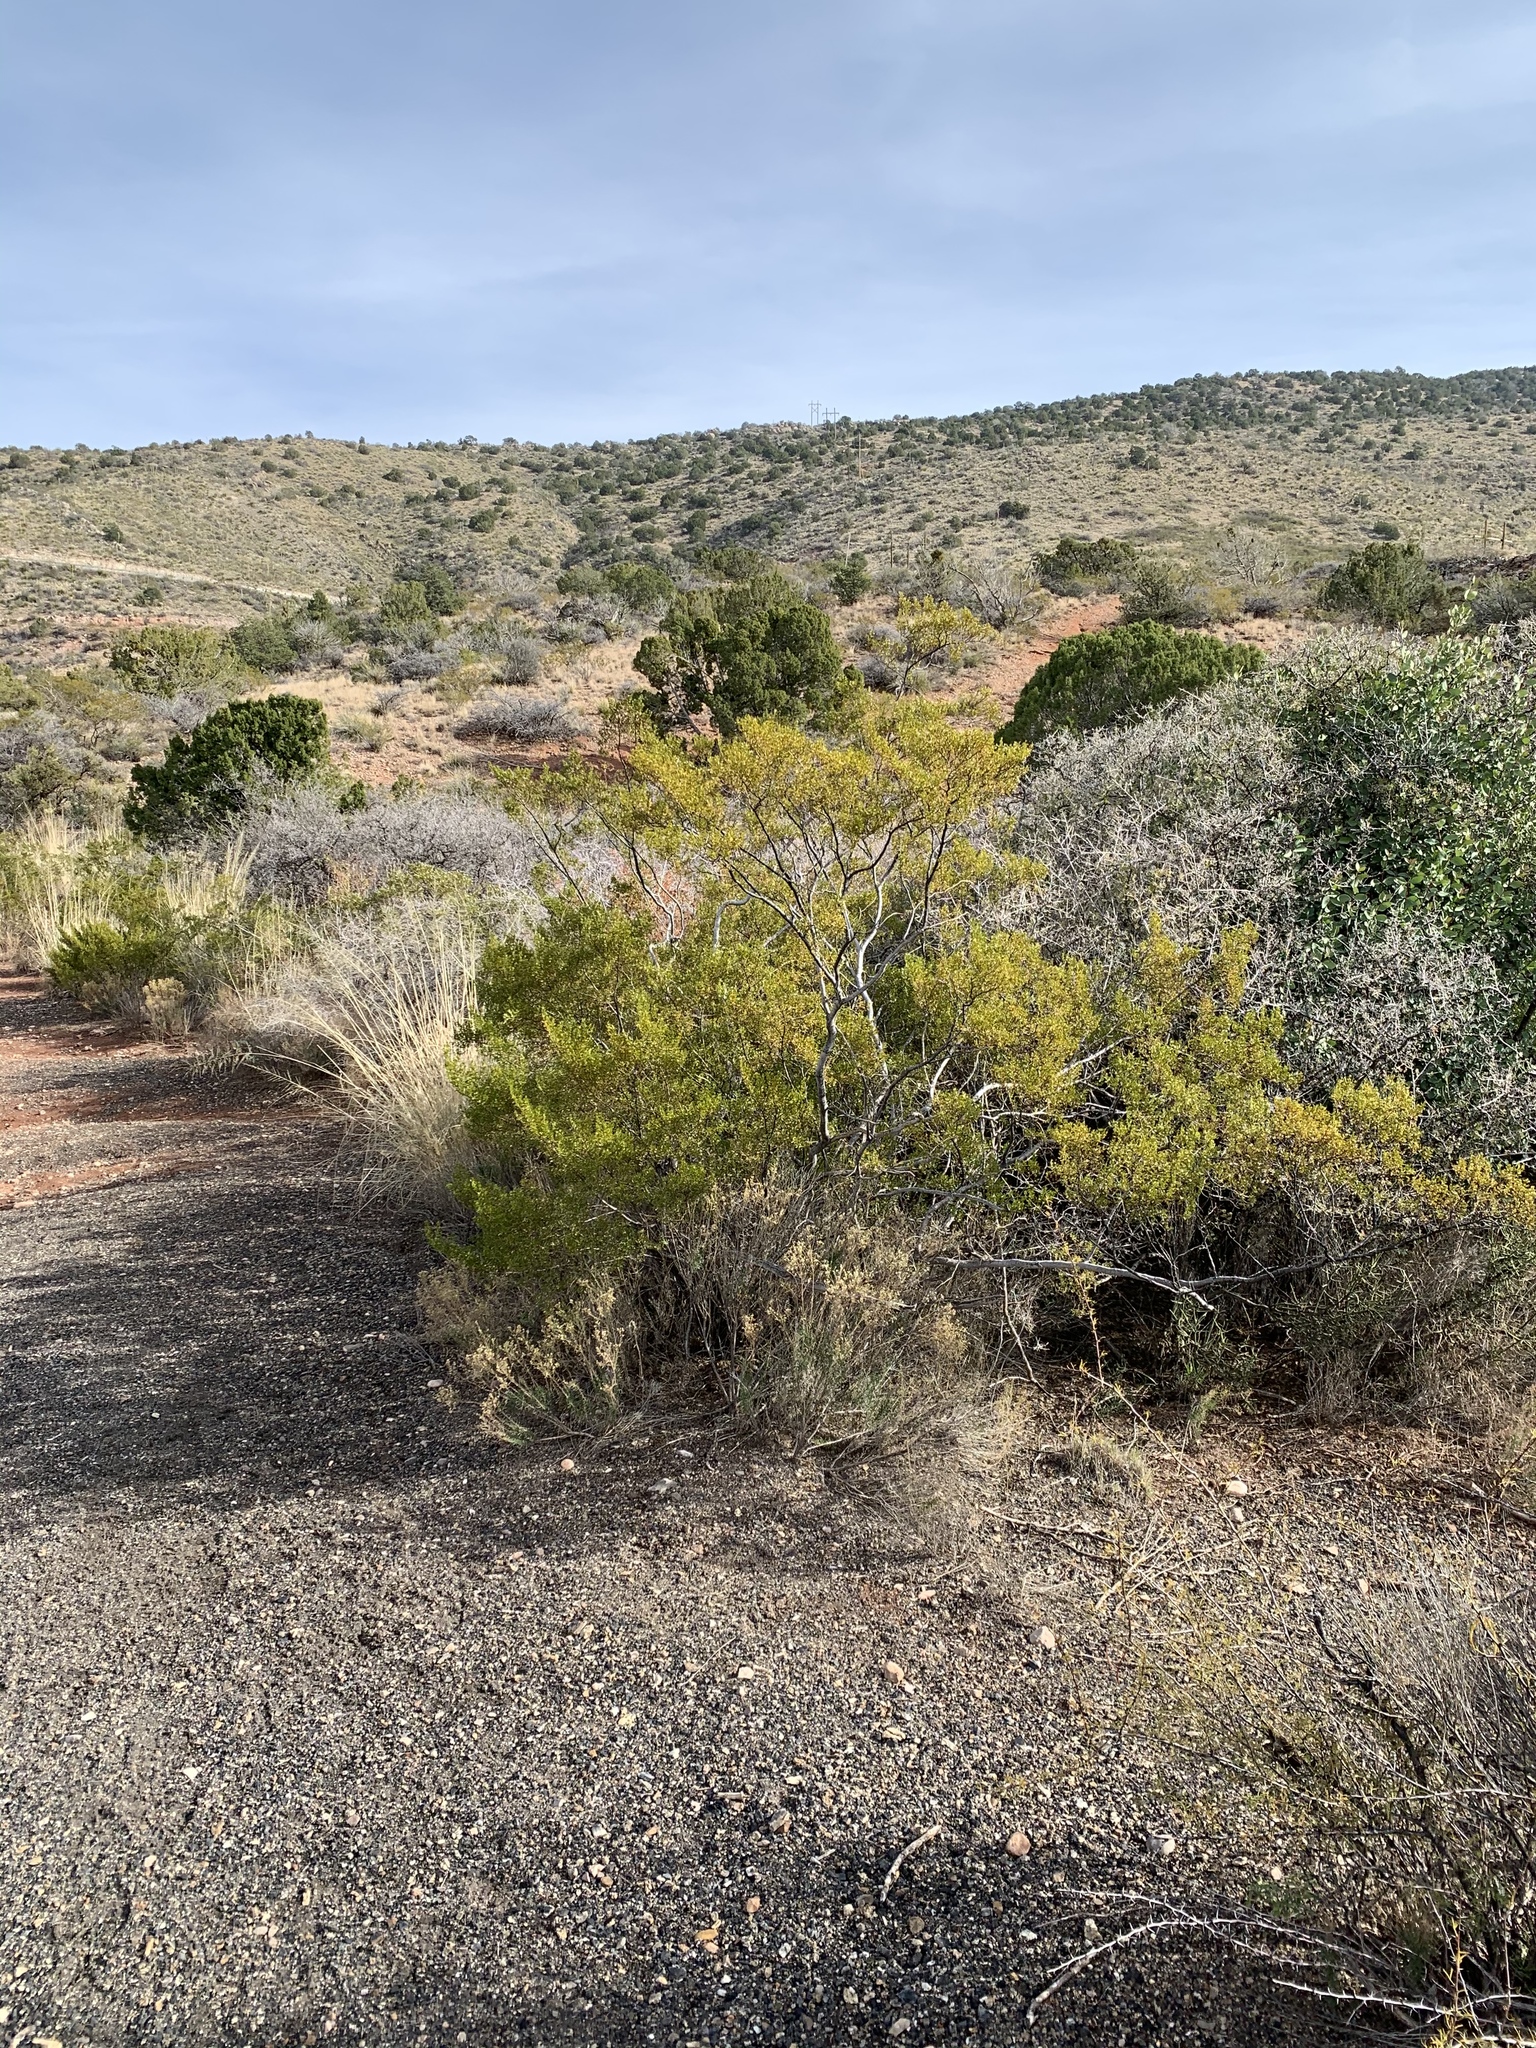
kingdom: Plantae
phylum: Tracheophyta
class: Magnoliopsida
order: Zygophyllales
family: Zygophyllaceae
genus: Larrea
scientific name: Larrea tridentata
